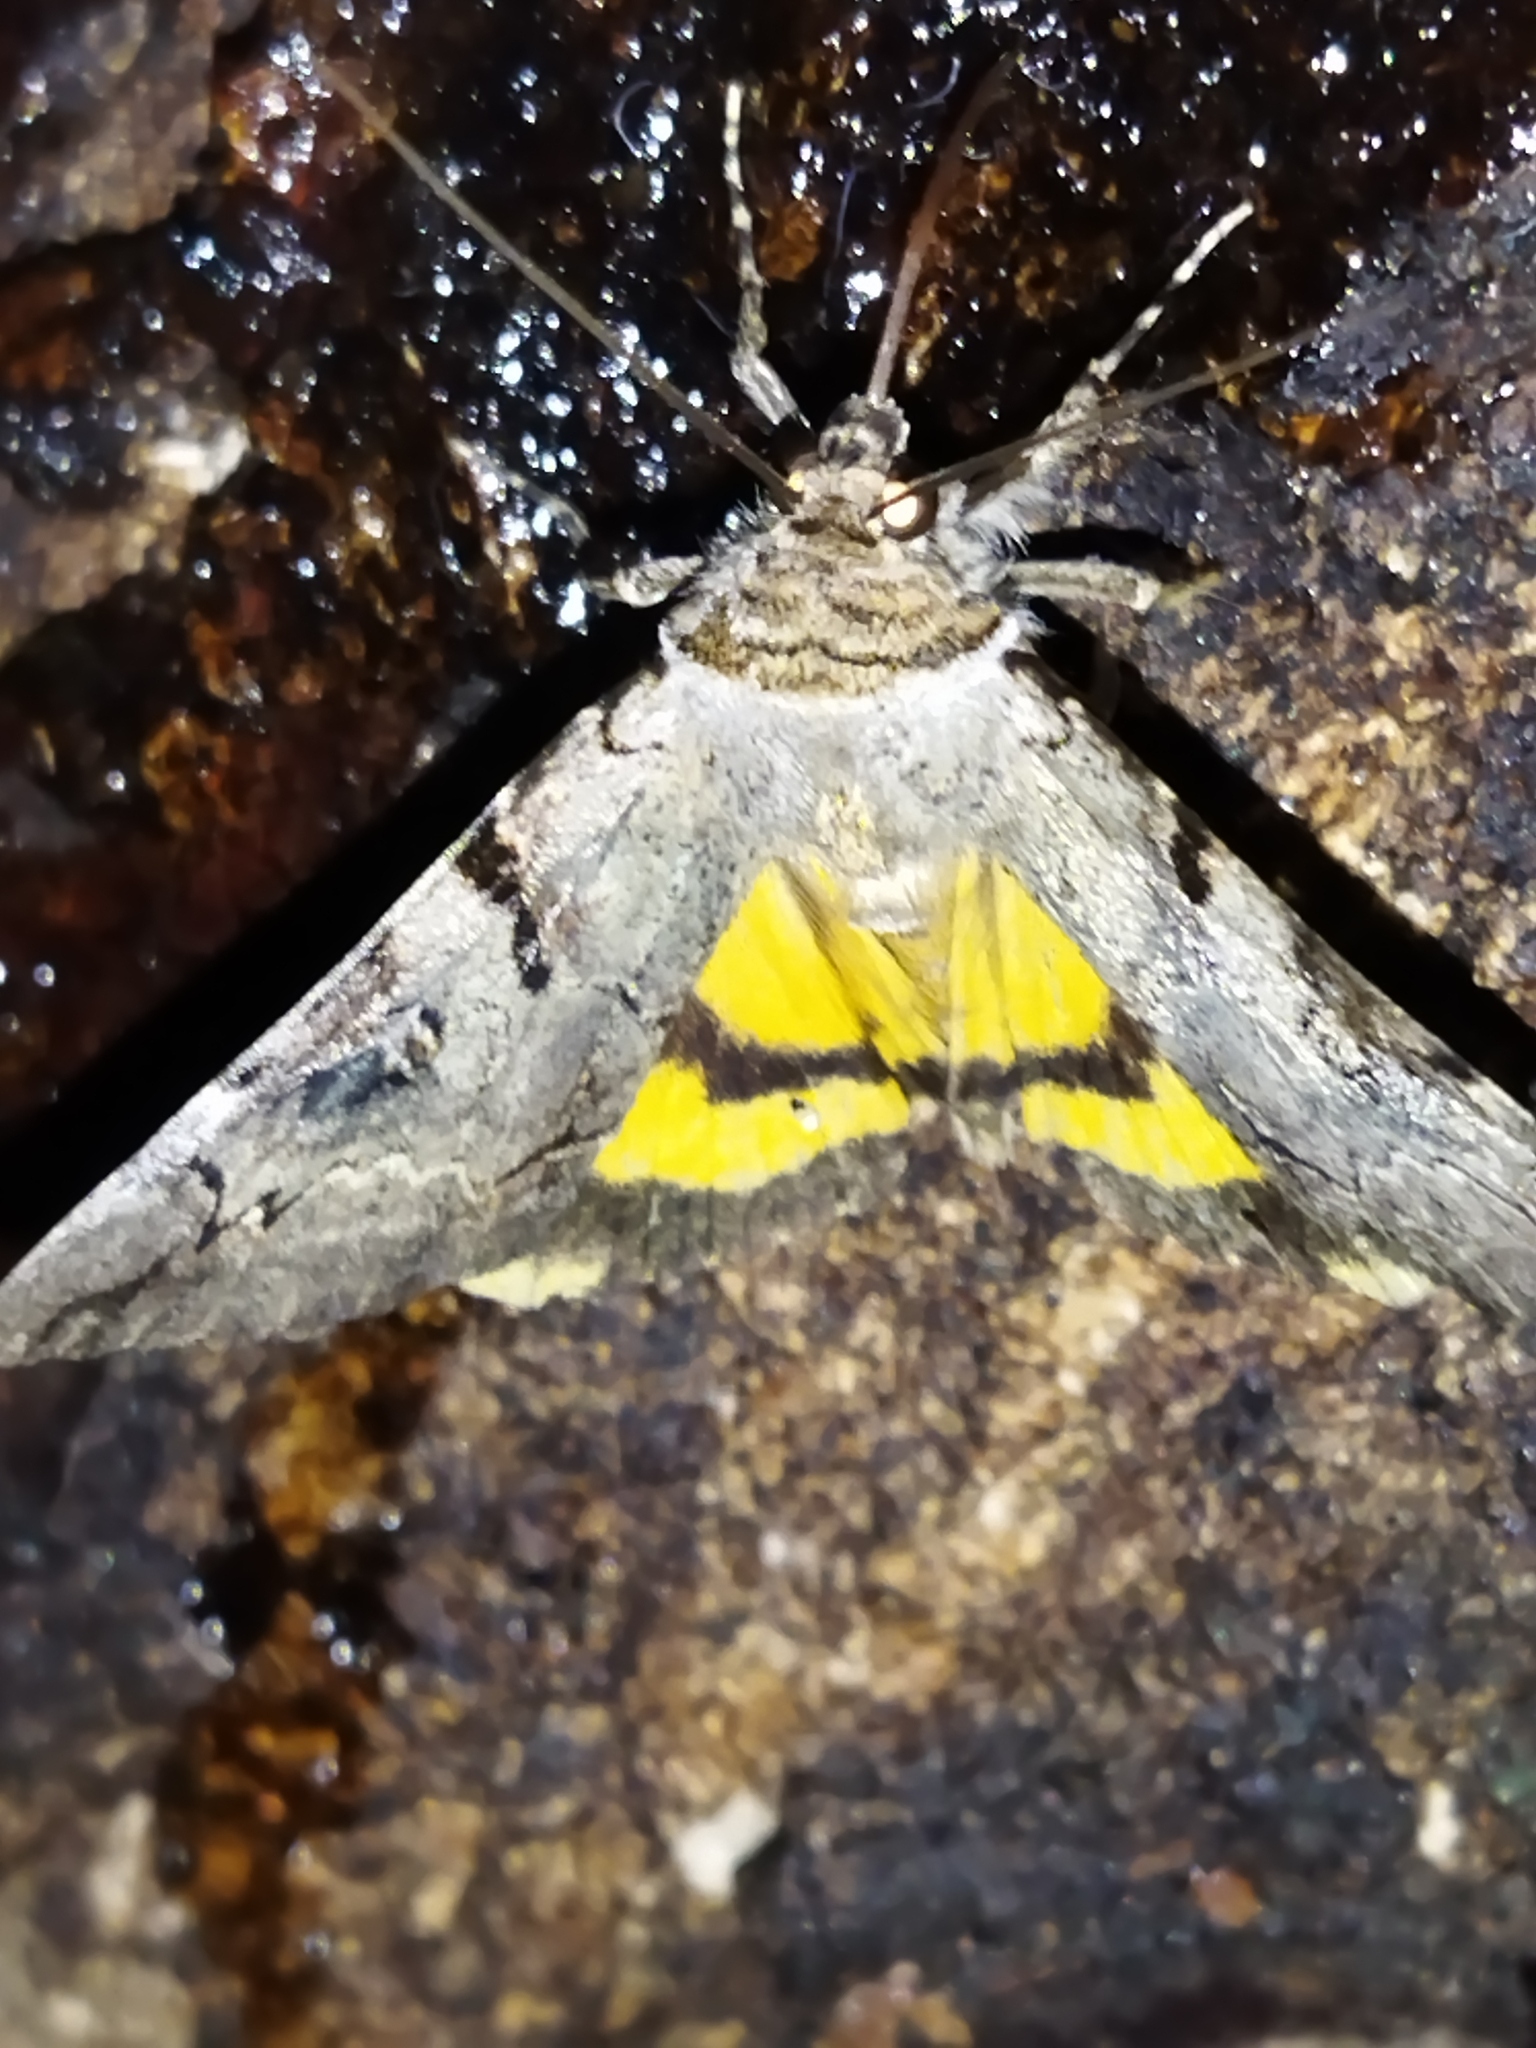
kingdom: Animalia
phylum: Arthropoda
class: Insecta
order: Lepidoptera
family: Erebidae
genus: Catocala
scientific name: Catocala hymenaea
